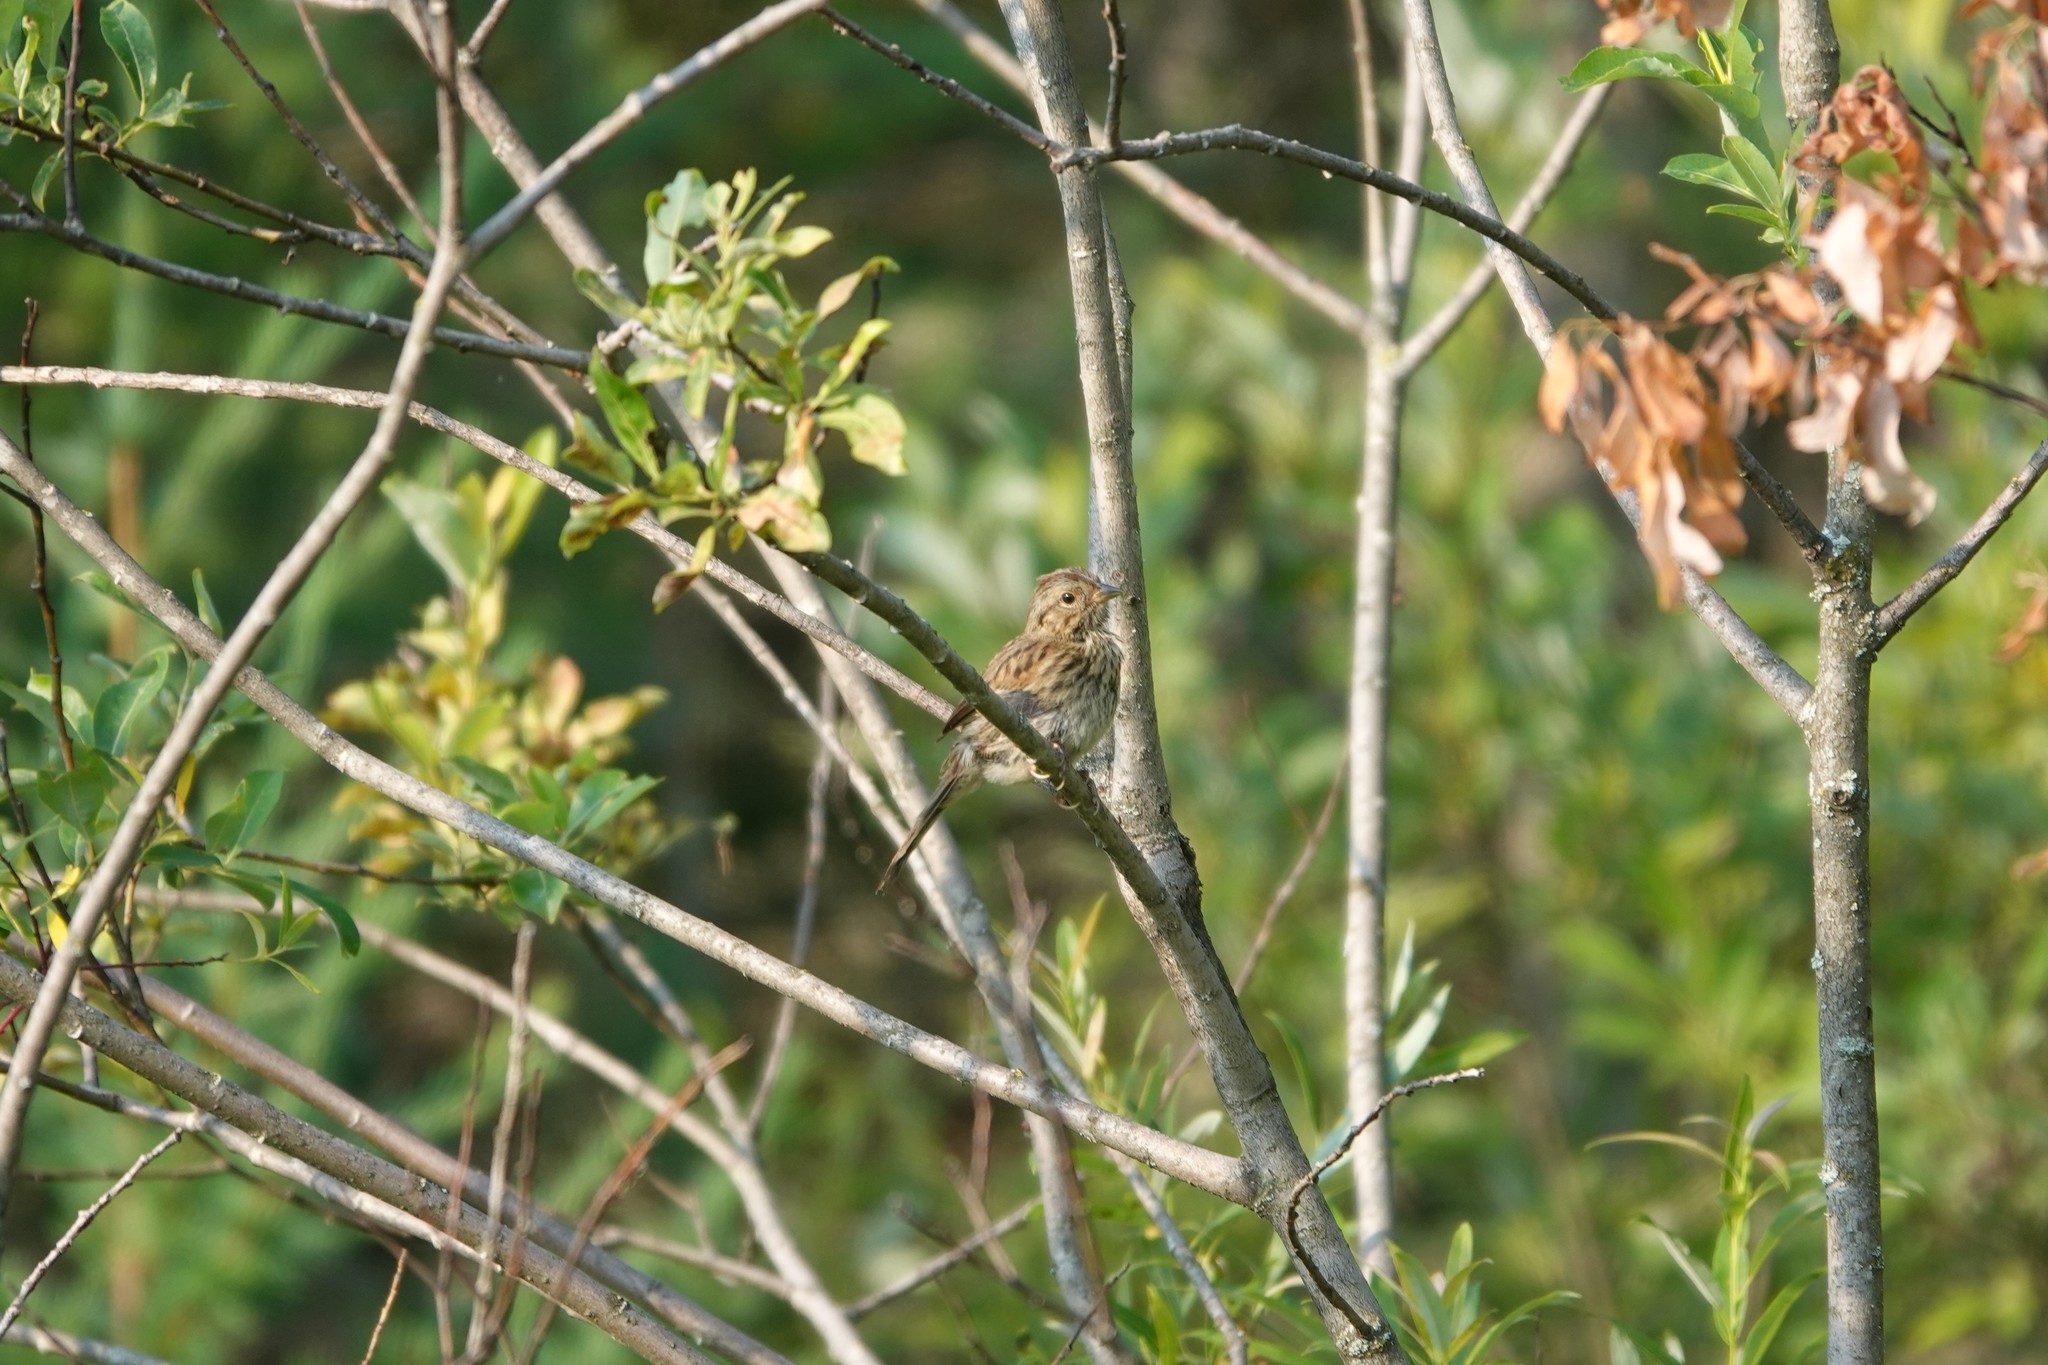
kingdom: Animalia
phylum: Chordata
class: Aves
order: Passeriformes
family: Passerellidae
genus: Melospiza
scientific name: Melospiza lincolnii
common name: Lincoln's sparrow
